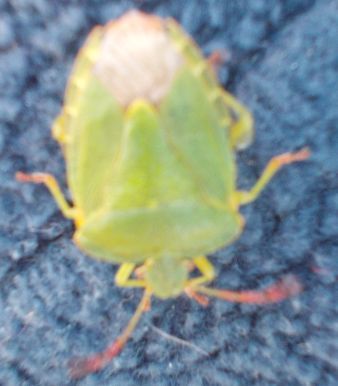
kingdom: Animalia
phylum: Arthropoda
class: Insecta
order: Hemiptera
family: Pentatomidae
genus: Palomena
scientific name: Palomena prasina
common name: Green shieldbug
